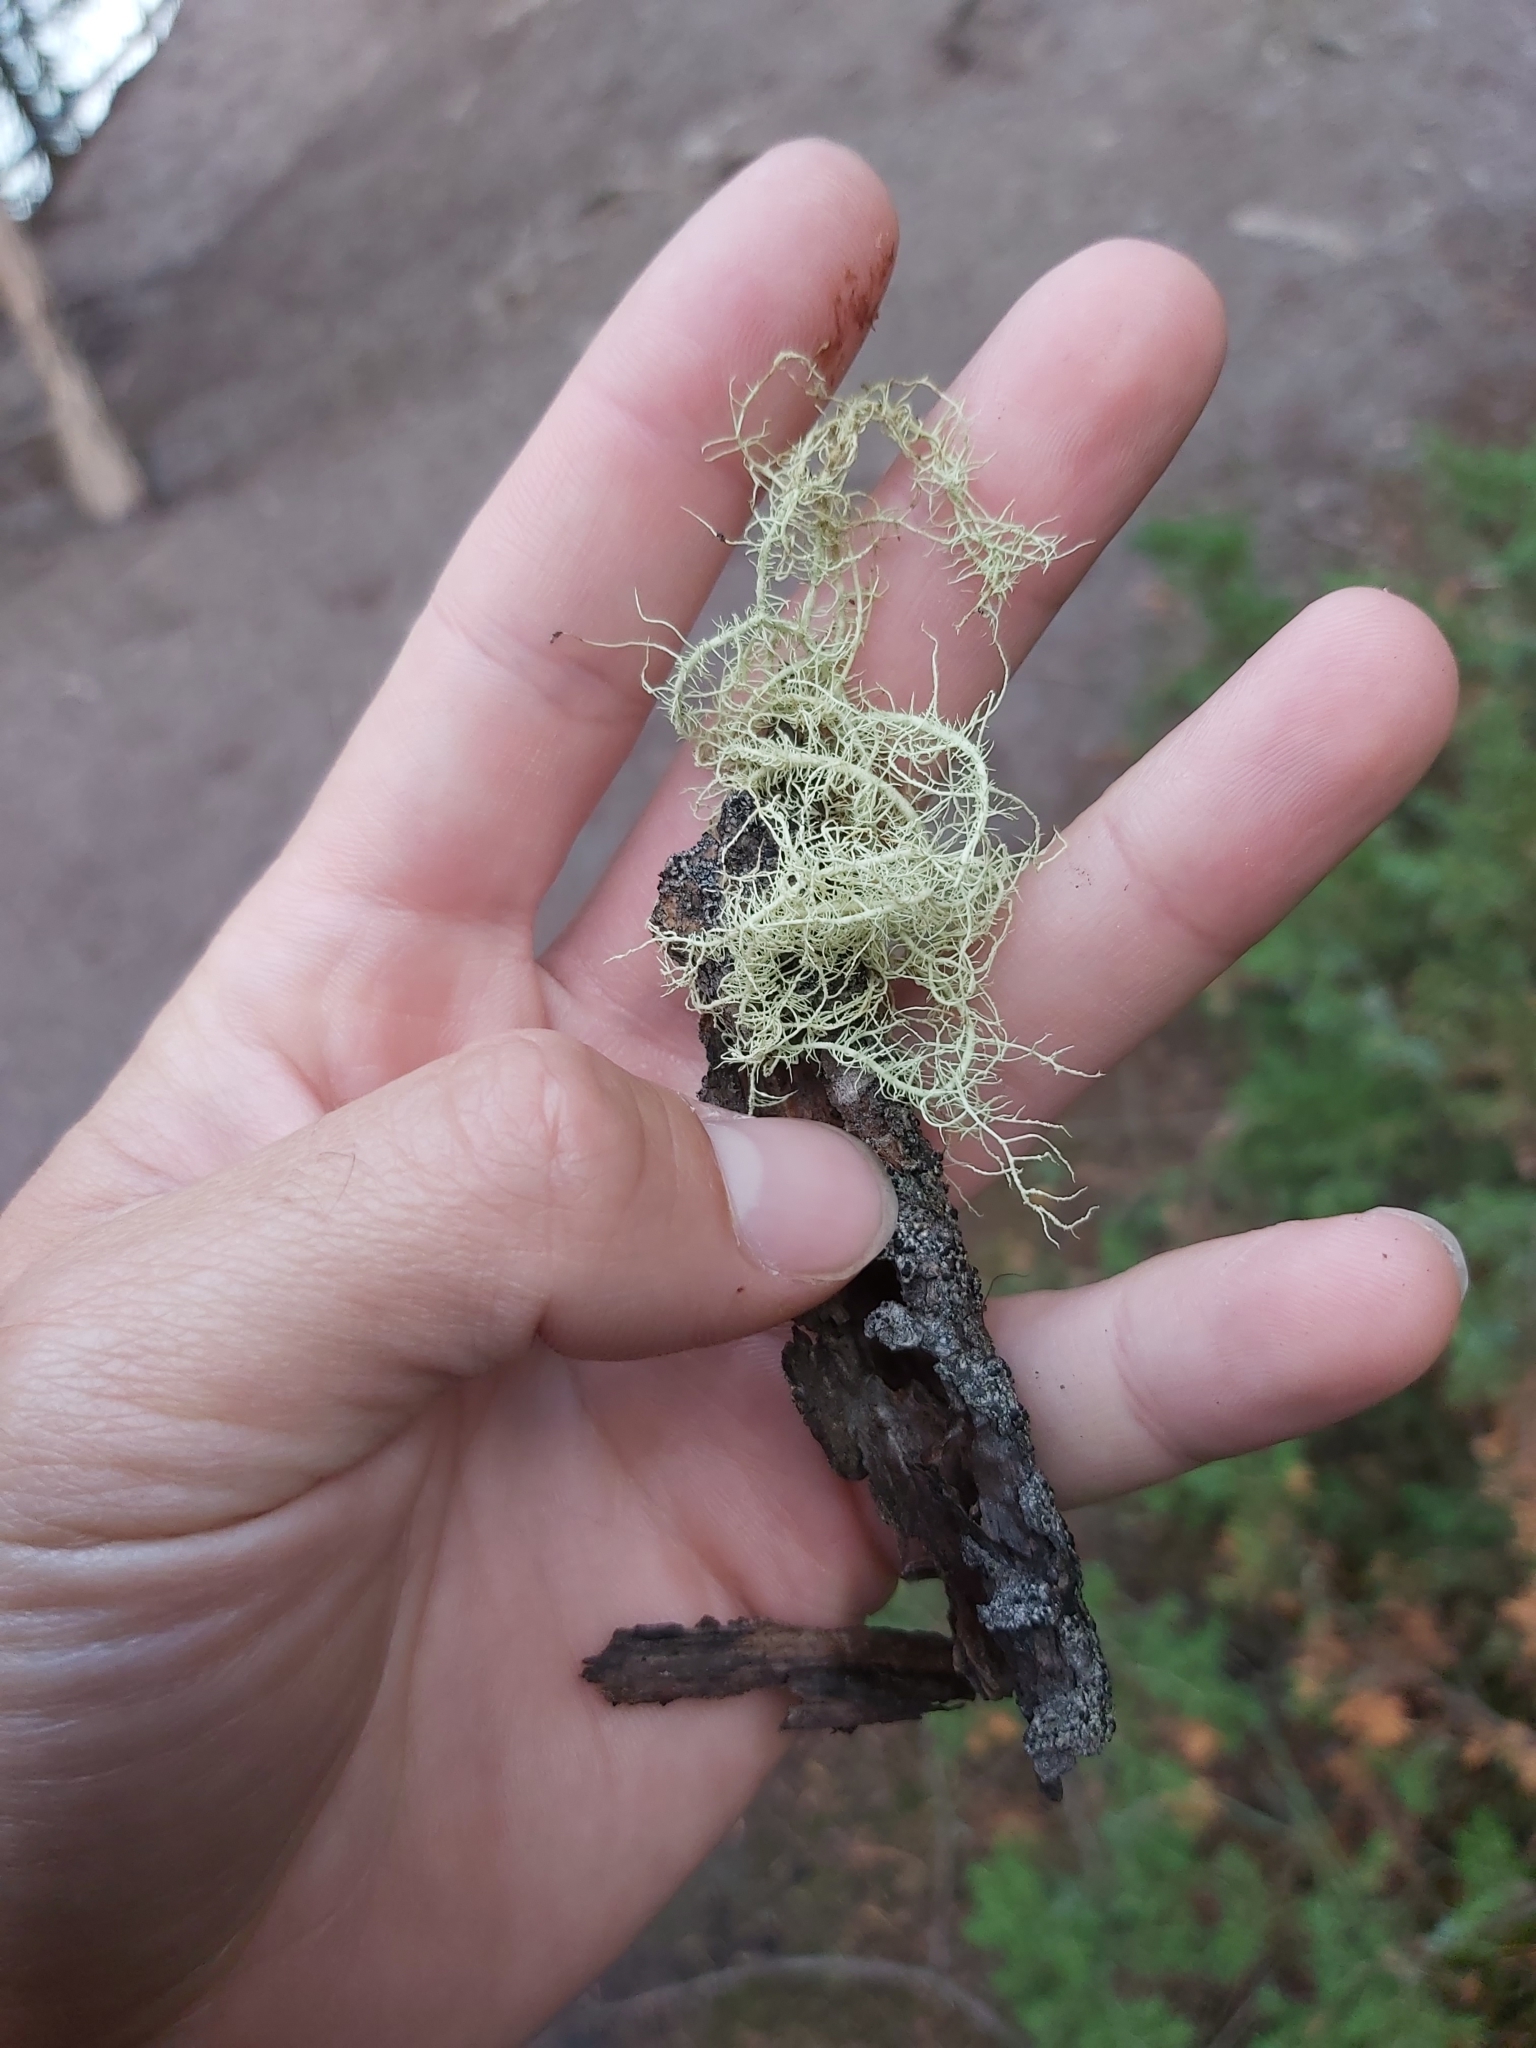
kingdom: Fungi
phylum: Ascomycota
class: Lecanoromycetes
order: Lecanorales
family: Parmeliaceae
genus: Usnea
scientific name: Usnea hirta
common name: Bristly beard lichen
